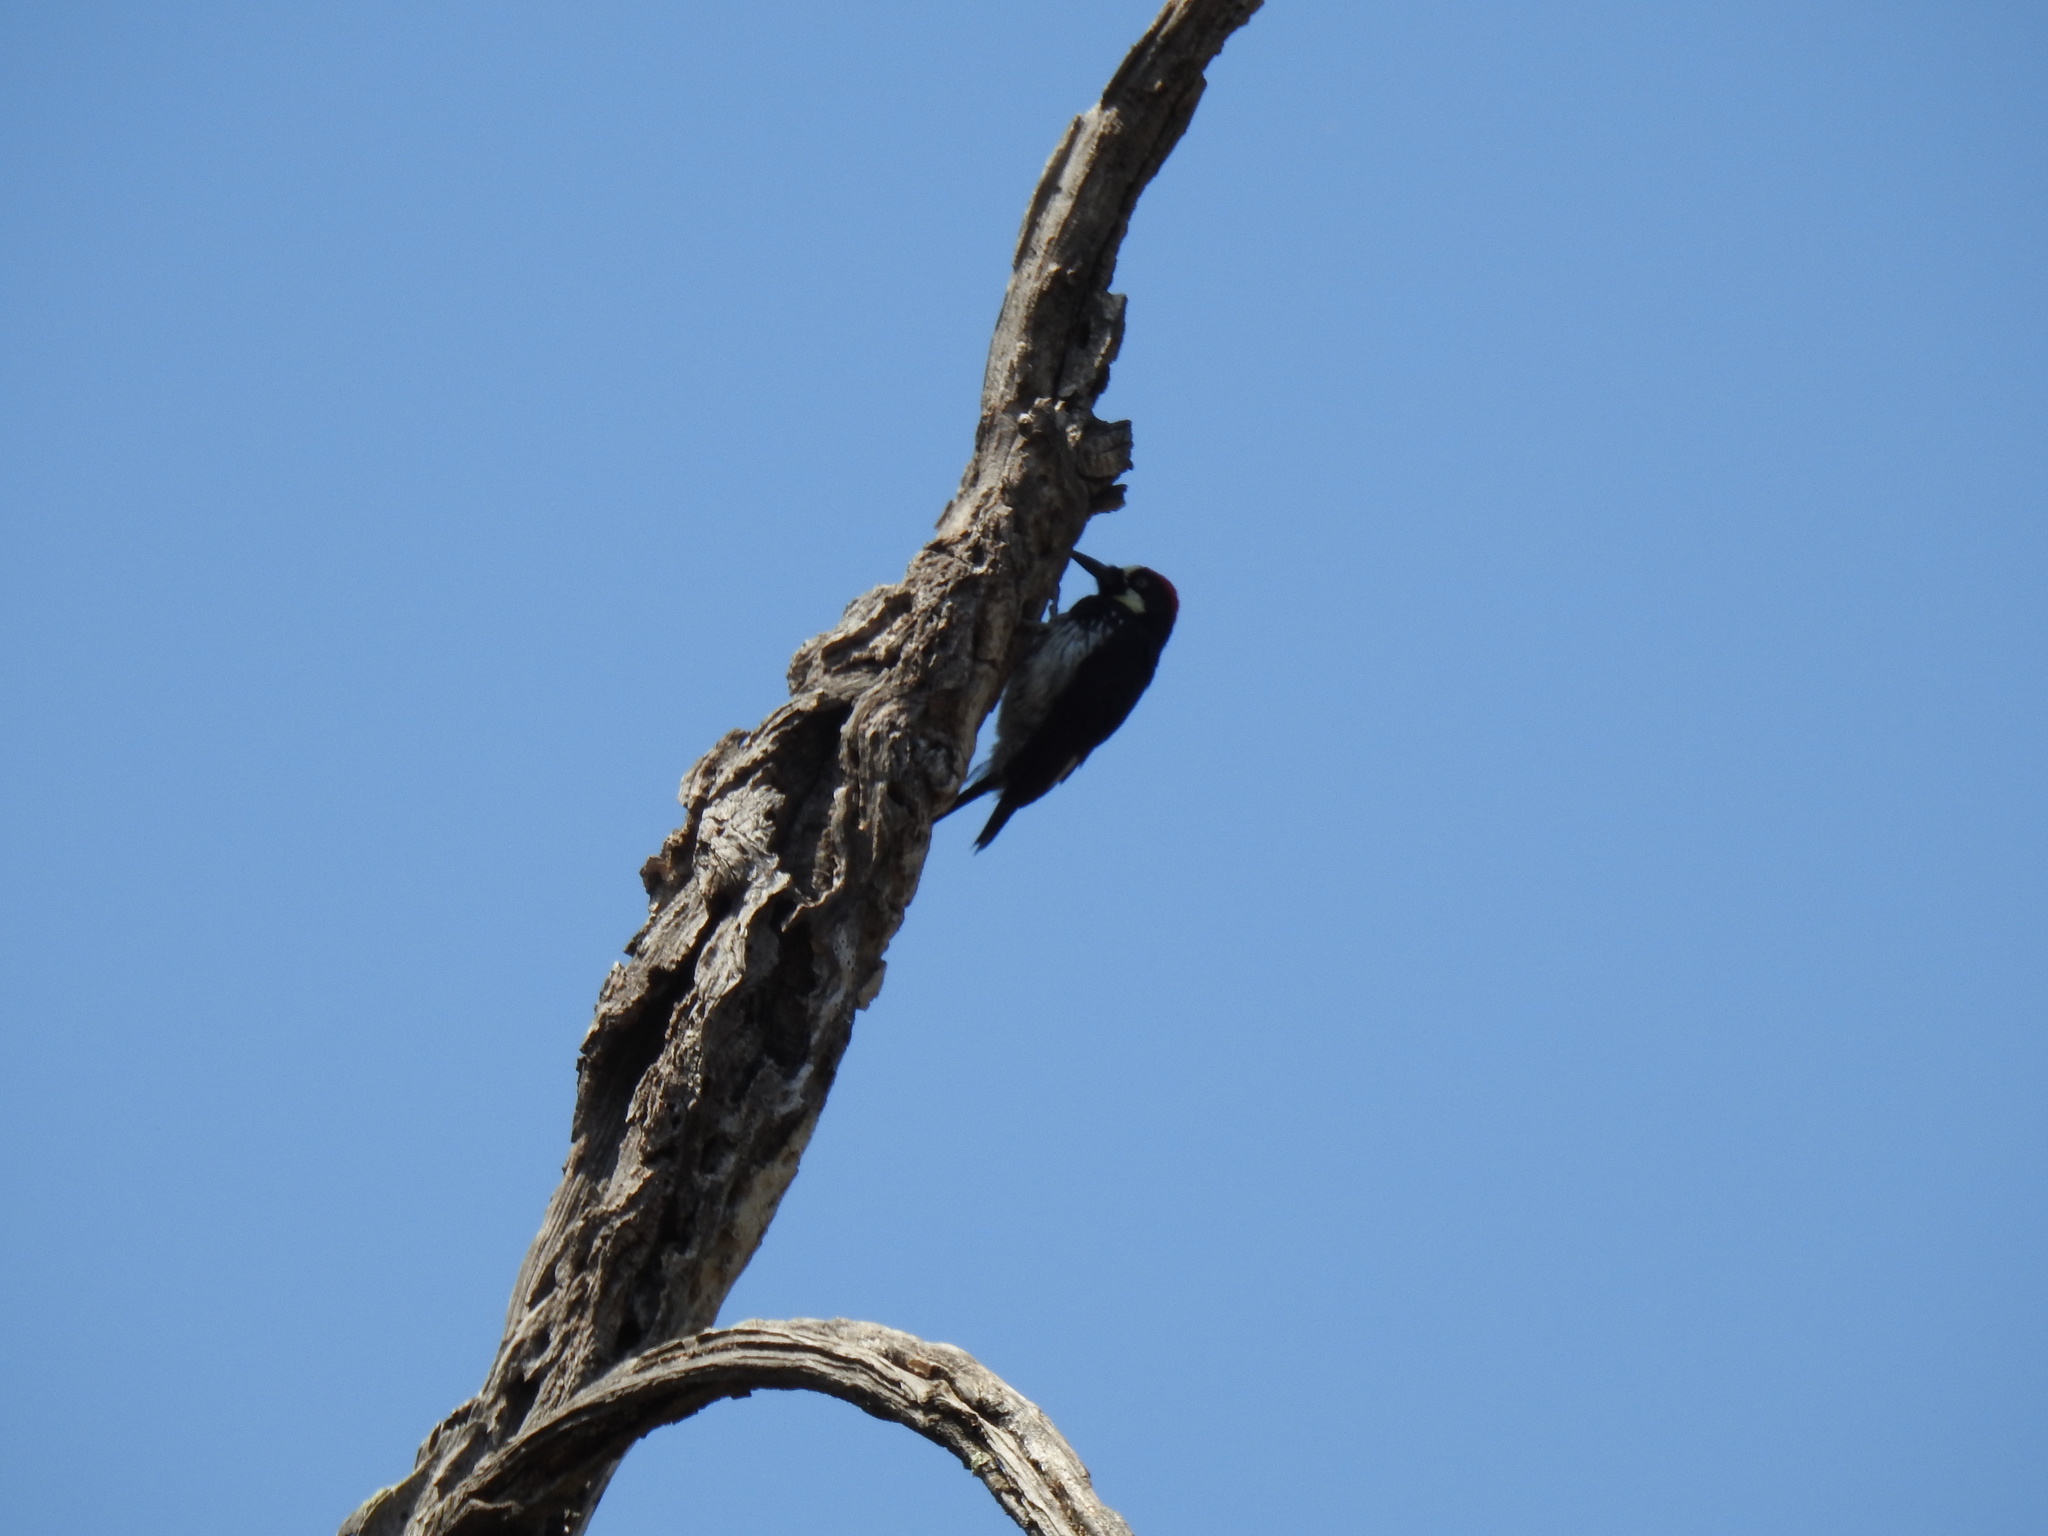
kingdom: Animalia
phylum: Chordata
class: Aves
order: Piciformes
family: Picidae
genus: Melanerpes
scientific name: Melanerpes formicivorus
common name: Acorn woodpecker
